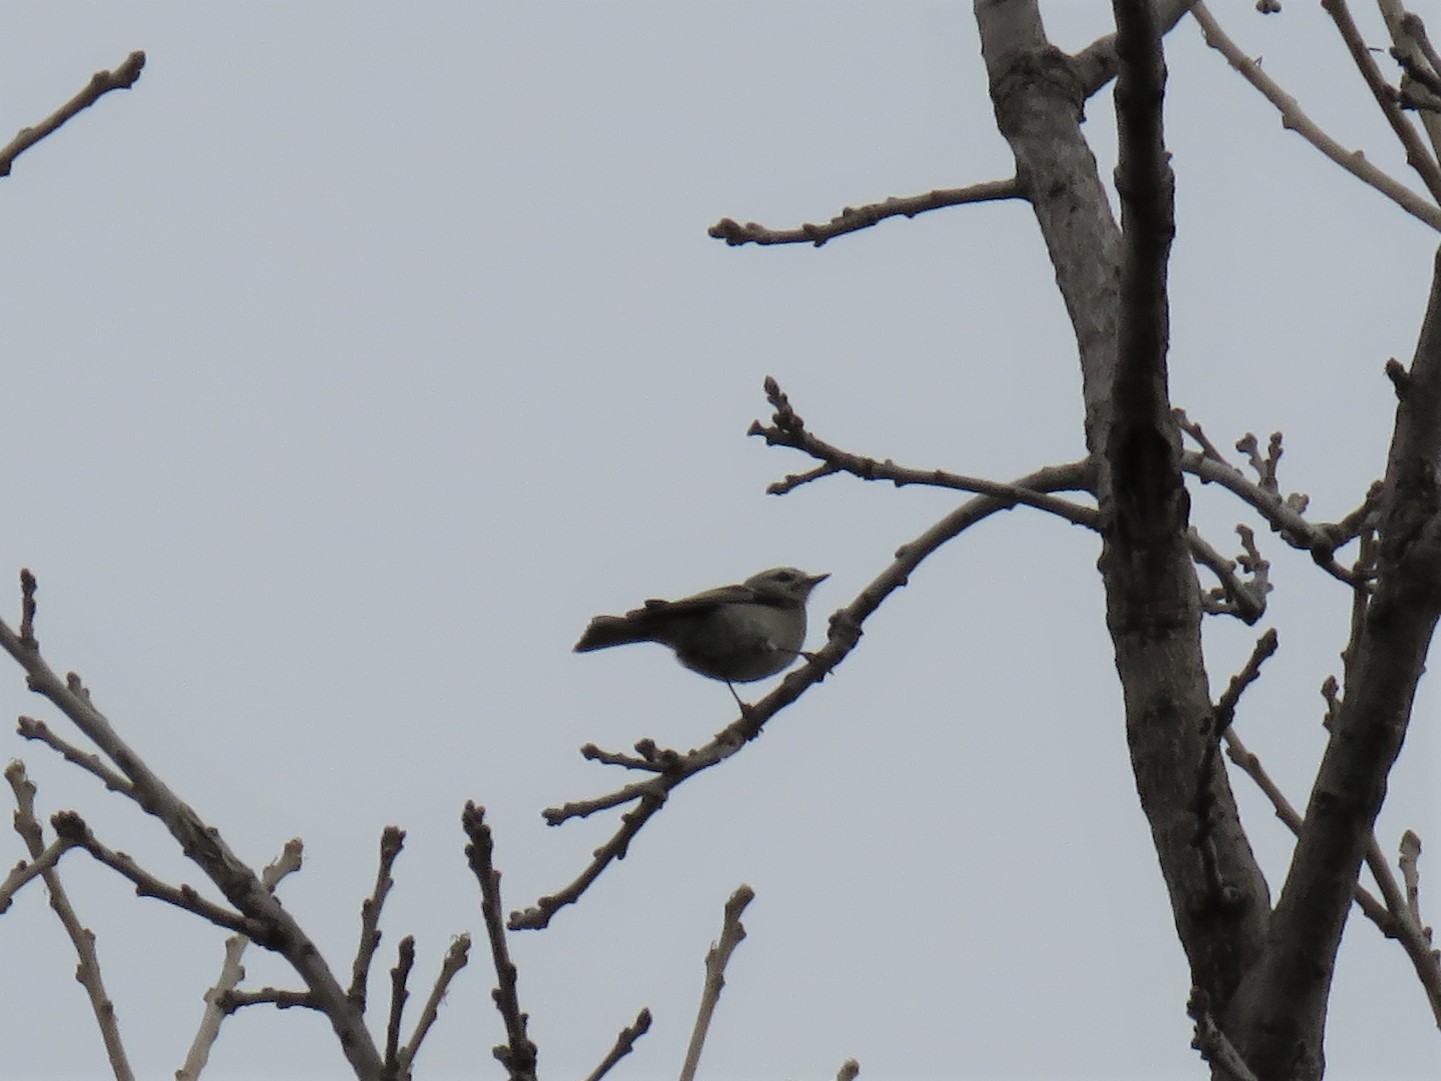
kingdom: Animalia
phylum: Chordata
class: Aves
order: Passeriformes
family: Regulidae
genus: Regulus
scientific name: Regulus satrapa
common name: Golden-crowned kinglet
